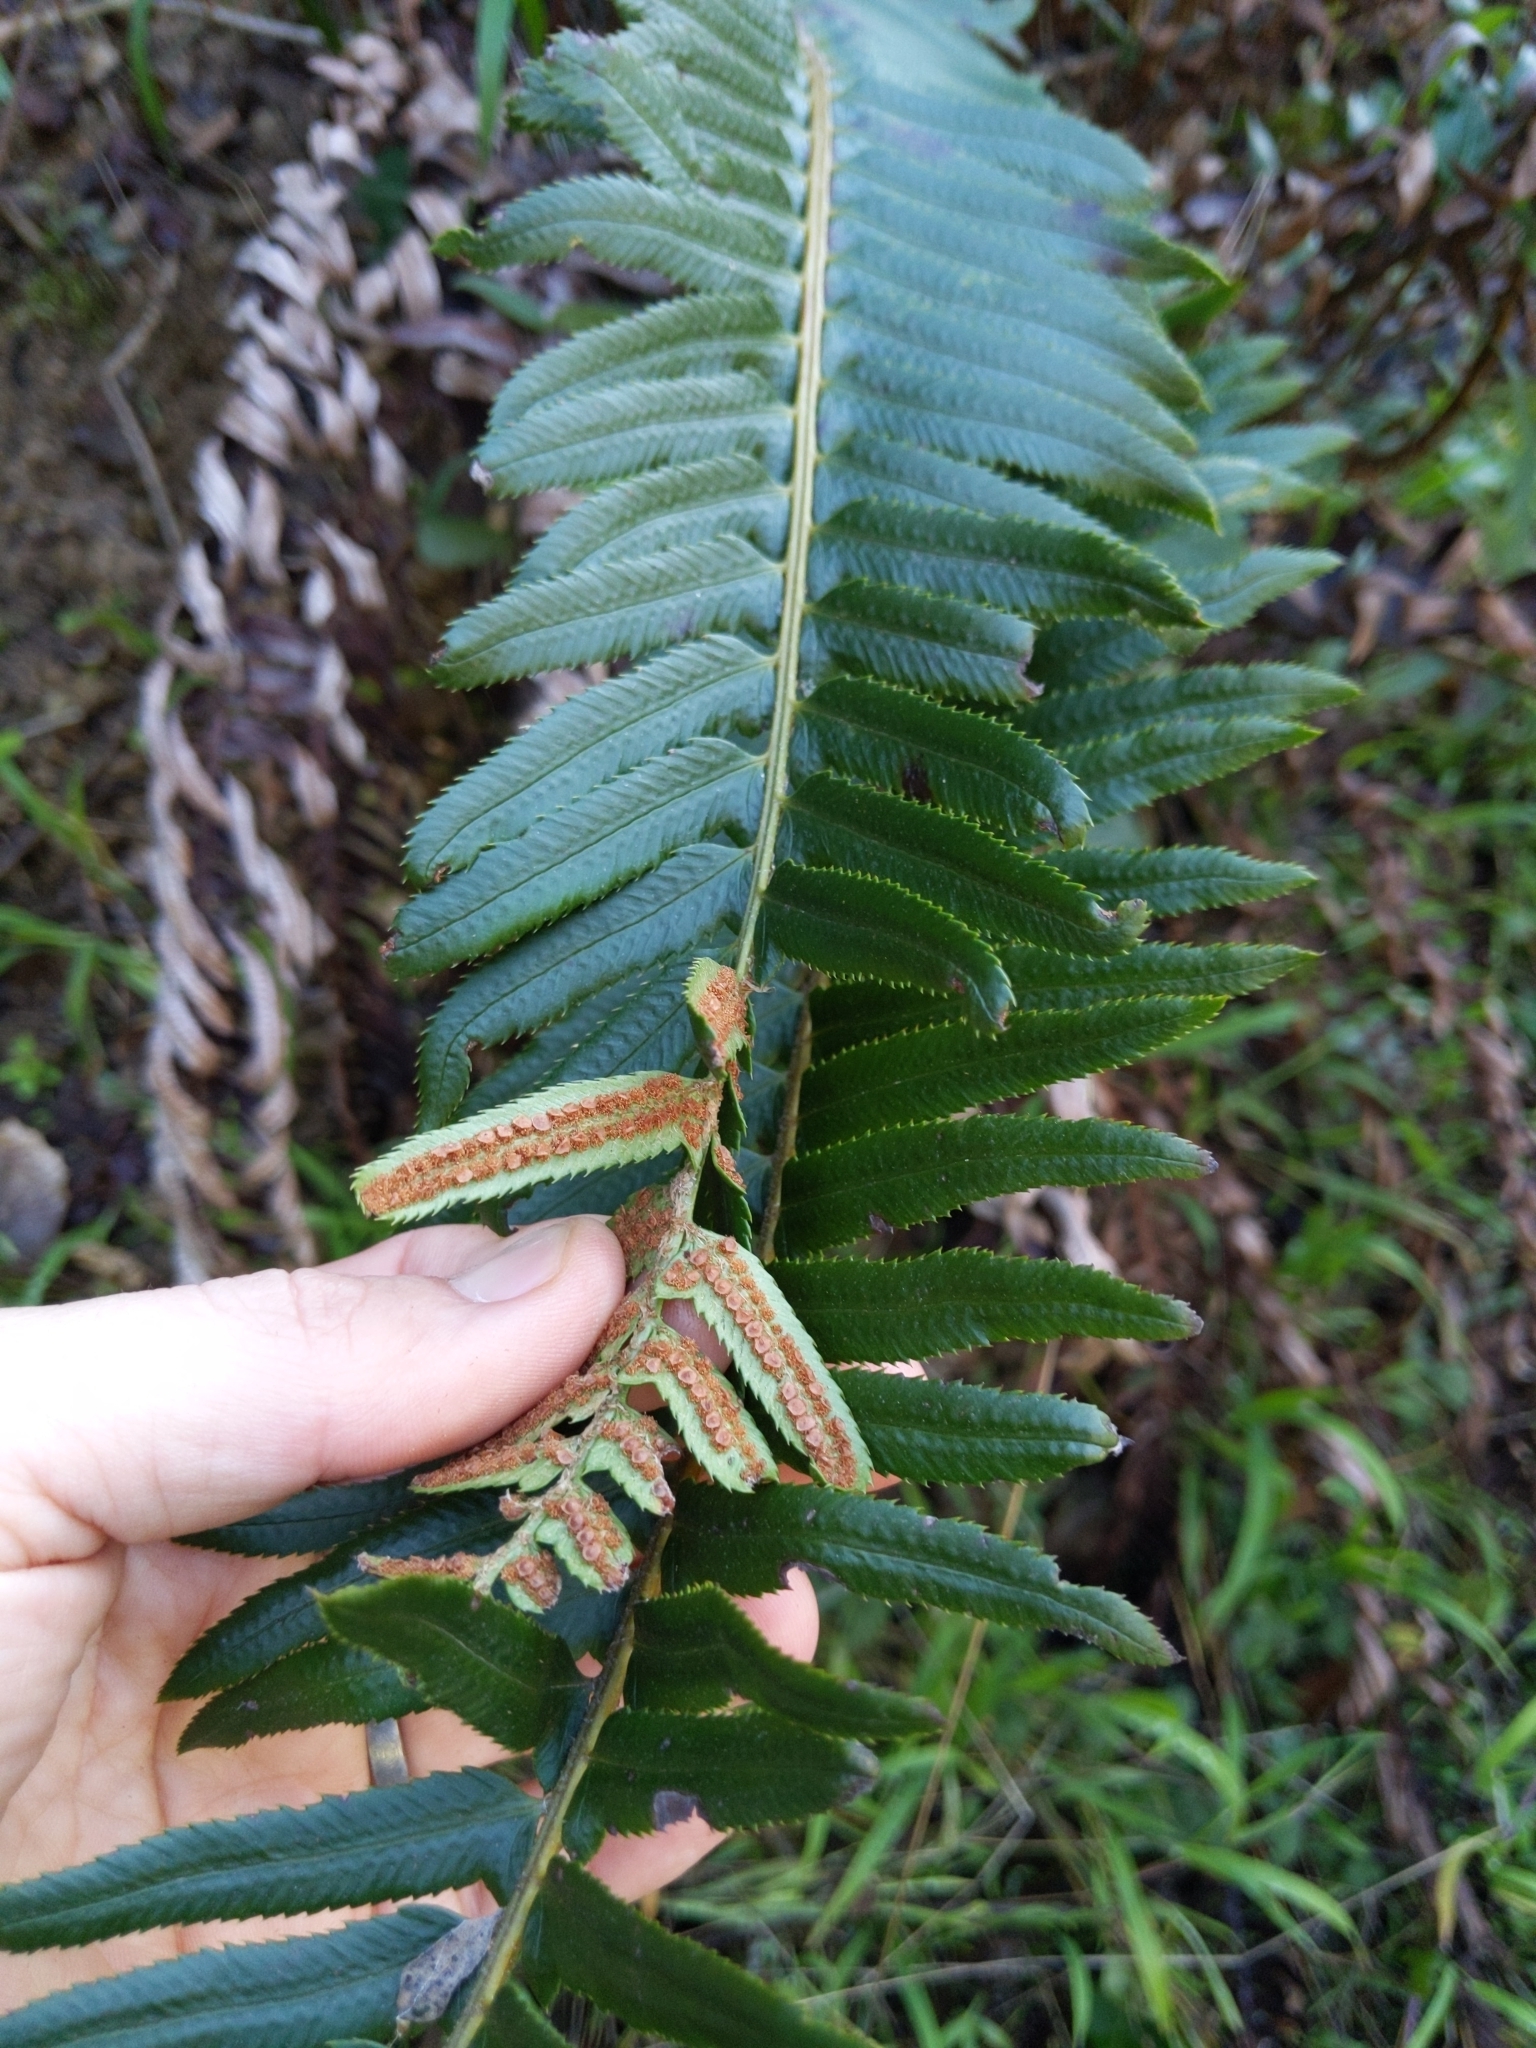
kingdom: Plantae
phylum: Tracheophyta
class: Polypodiopsida
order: Polypodiales
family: Dryopteridaceae
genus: Polystichum
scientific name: Polystichum munitum
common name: Western sword-fern
